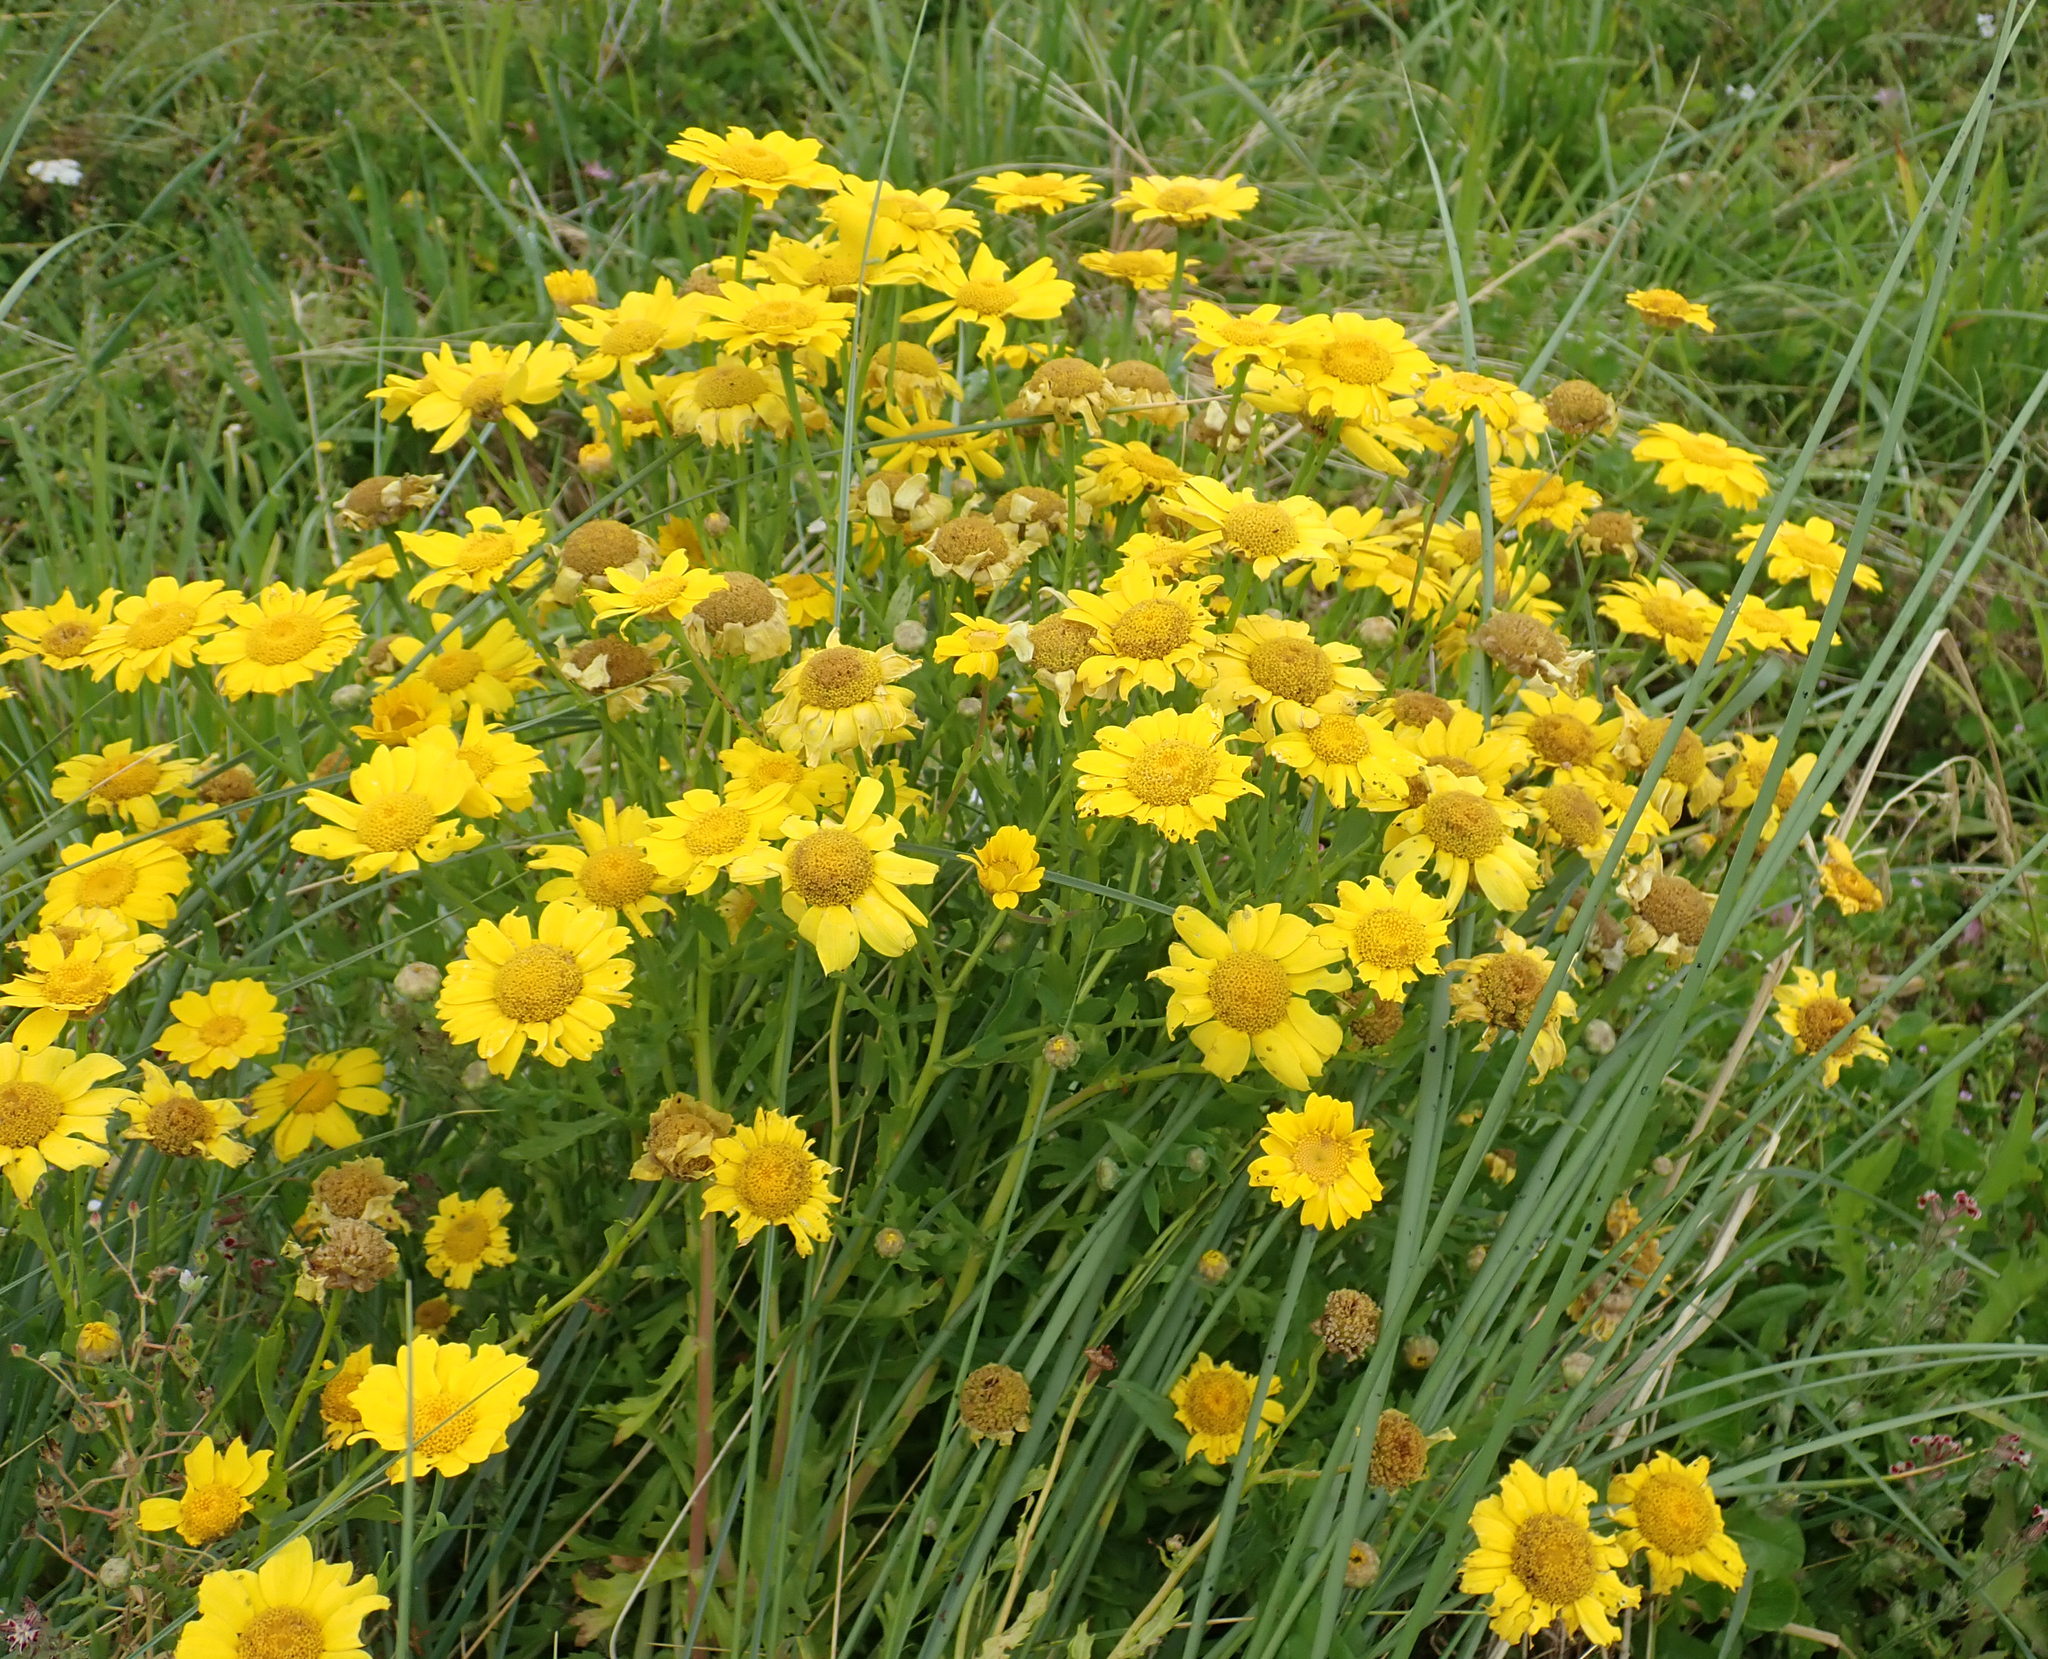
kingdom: Plantae
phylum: Tracheophyta
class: Magnoliopsida
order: Asterales
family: Asteraceae
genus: Glebionis
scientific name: Glebionis segetum
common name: Corndaisy
